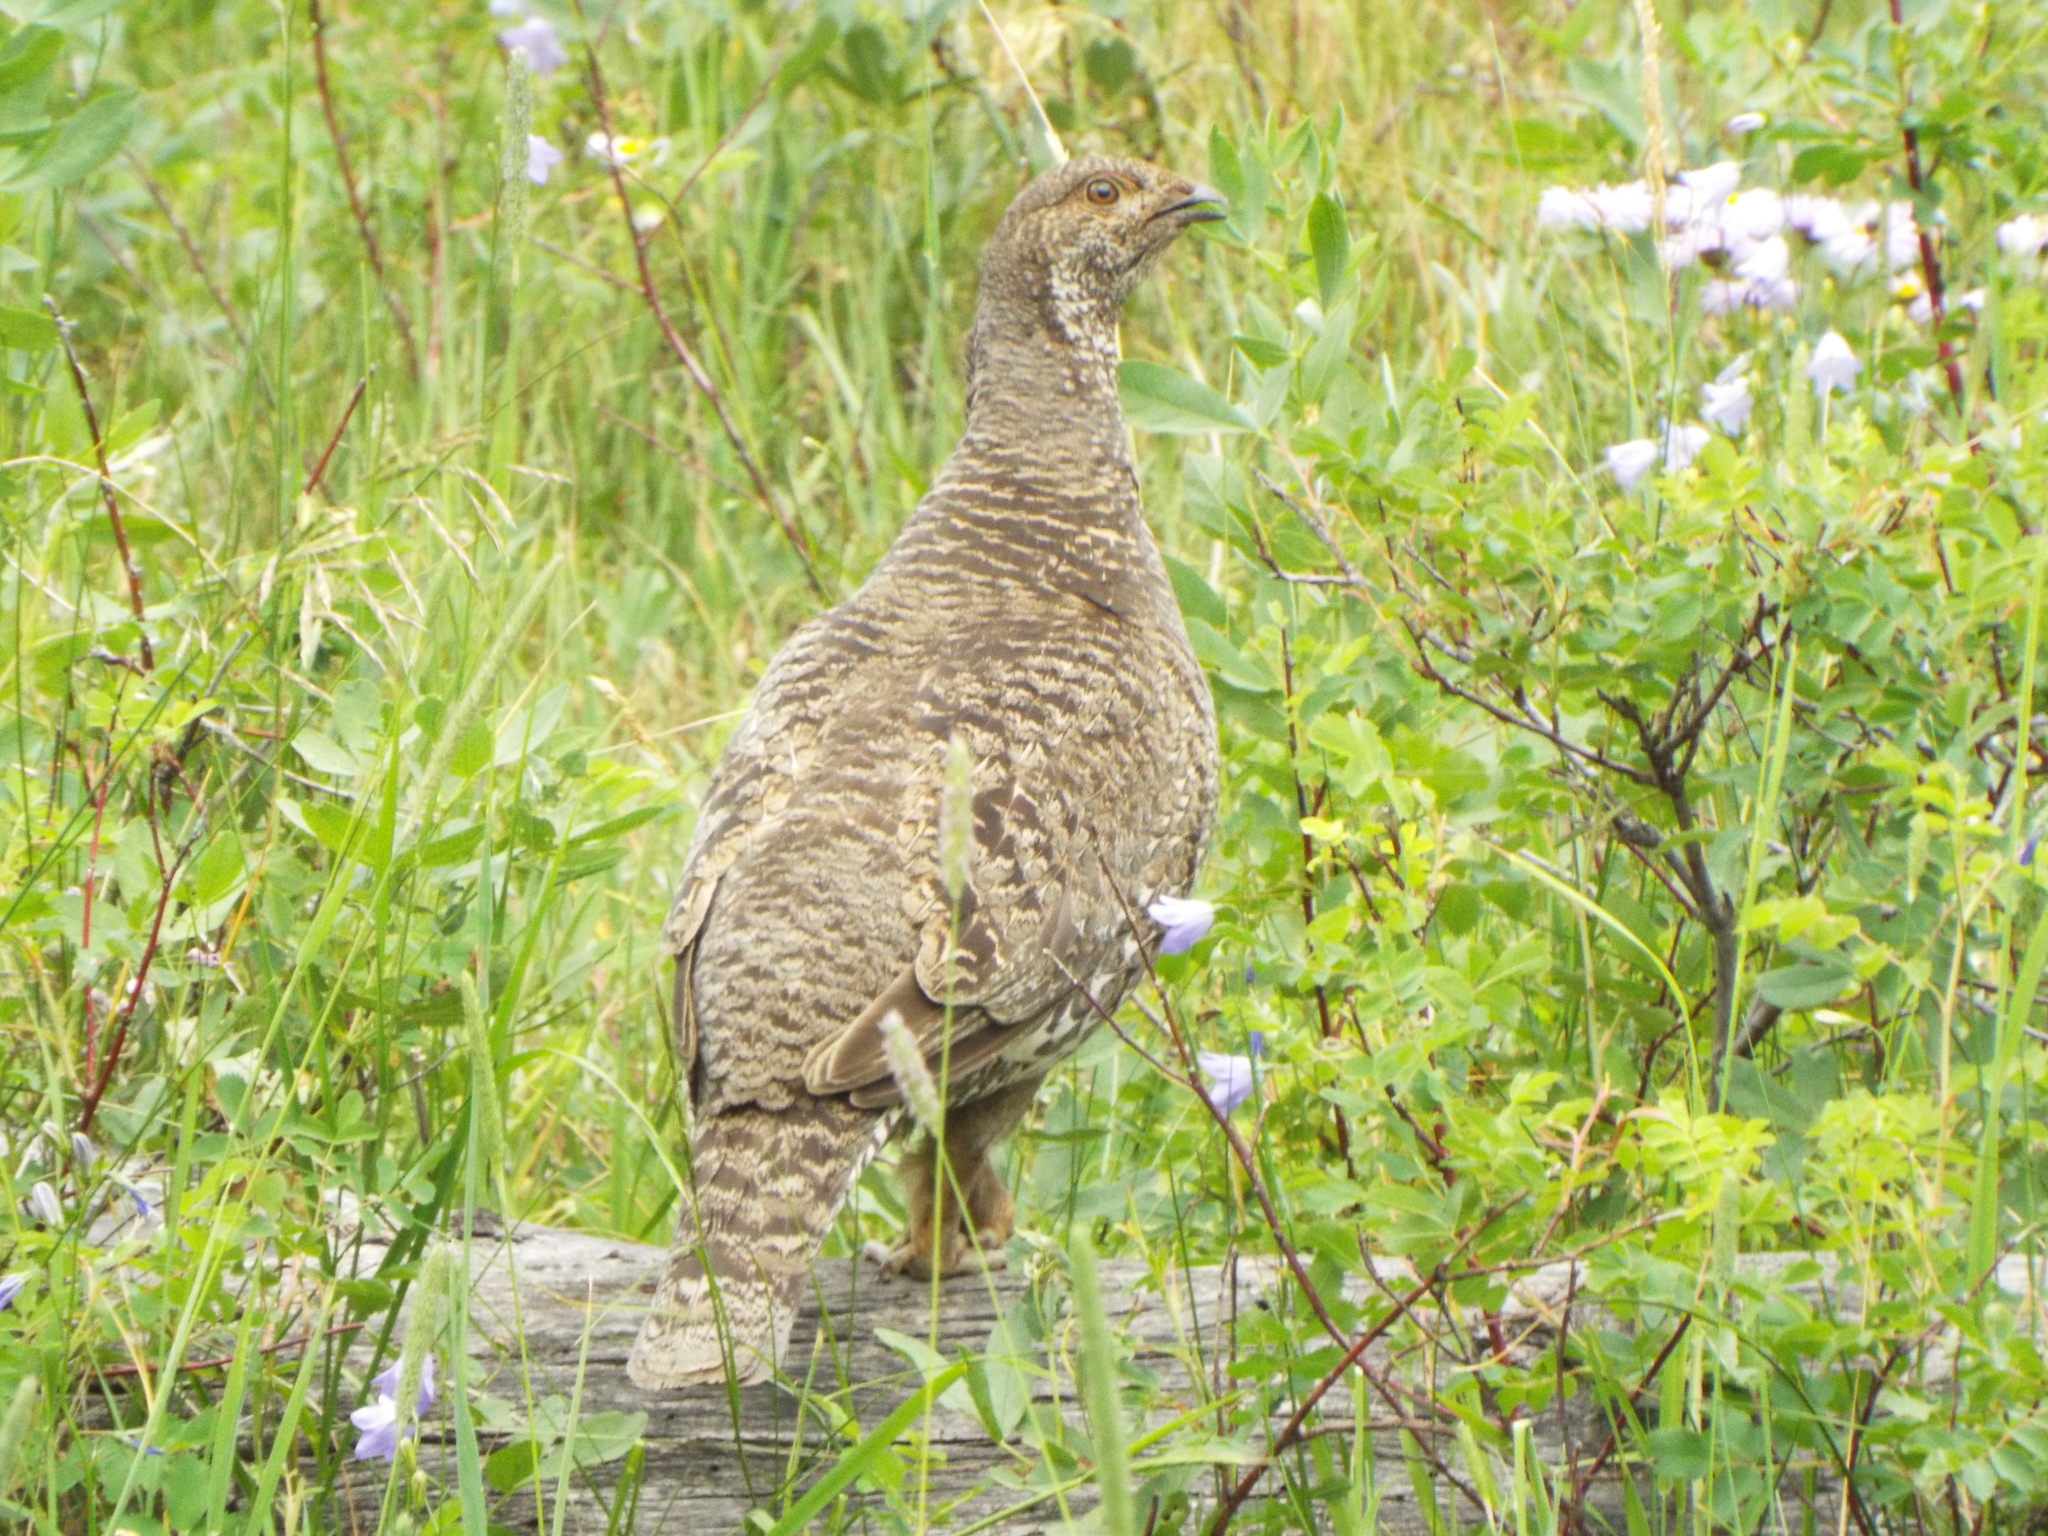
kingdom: Animalia
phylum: Chordata
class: Aves
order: Galliformes
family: Phasianidae
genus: Dendragapus
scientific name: Dendragapus obscurus
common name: Dusky grouse
